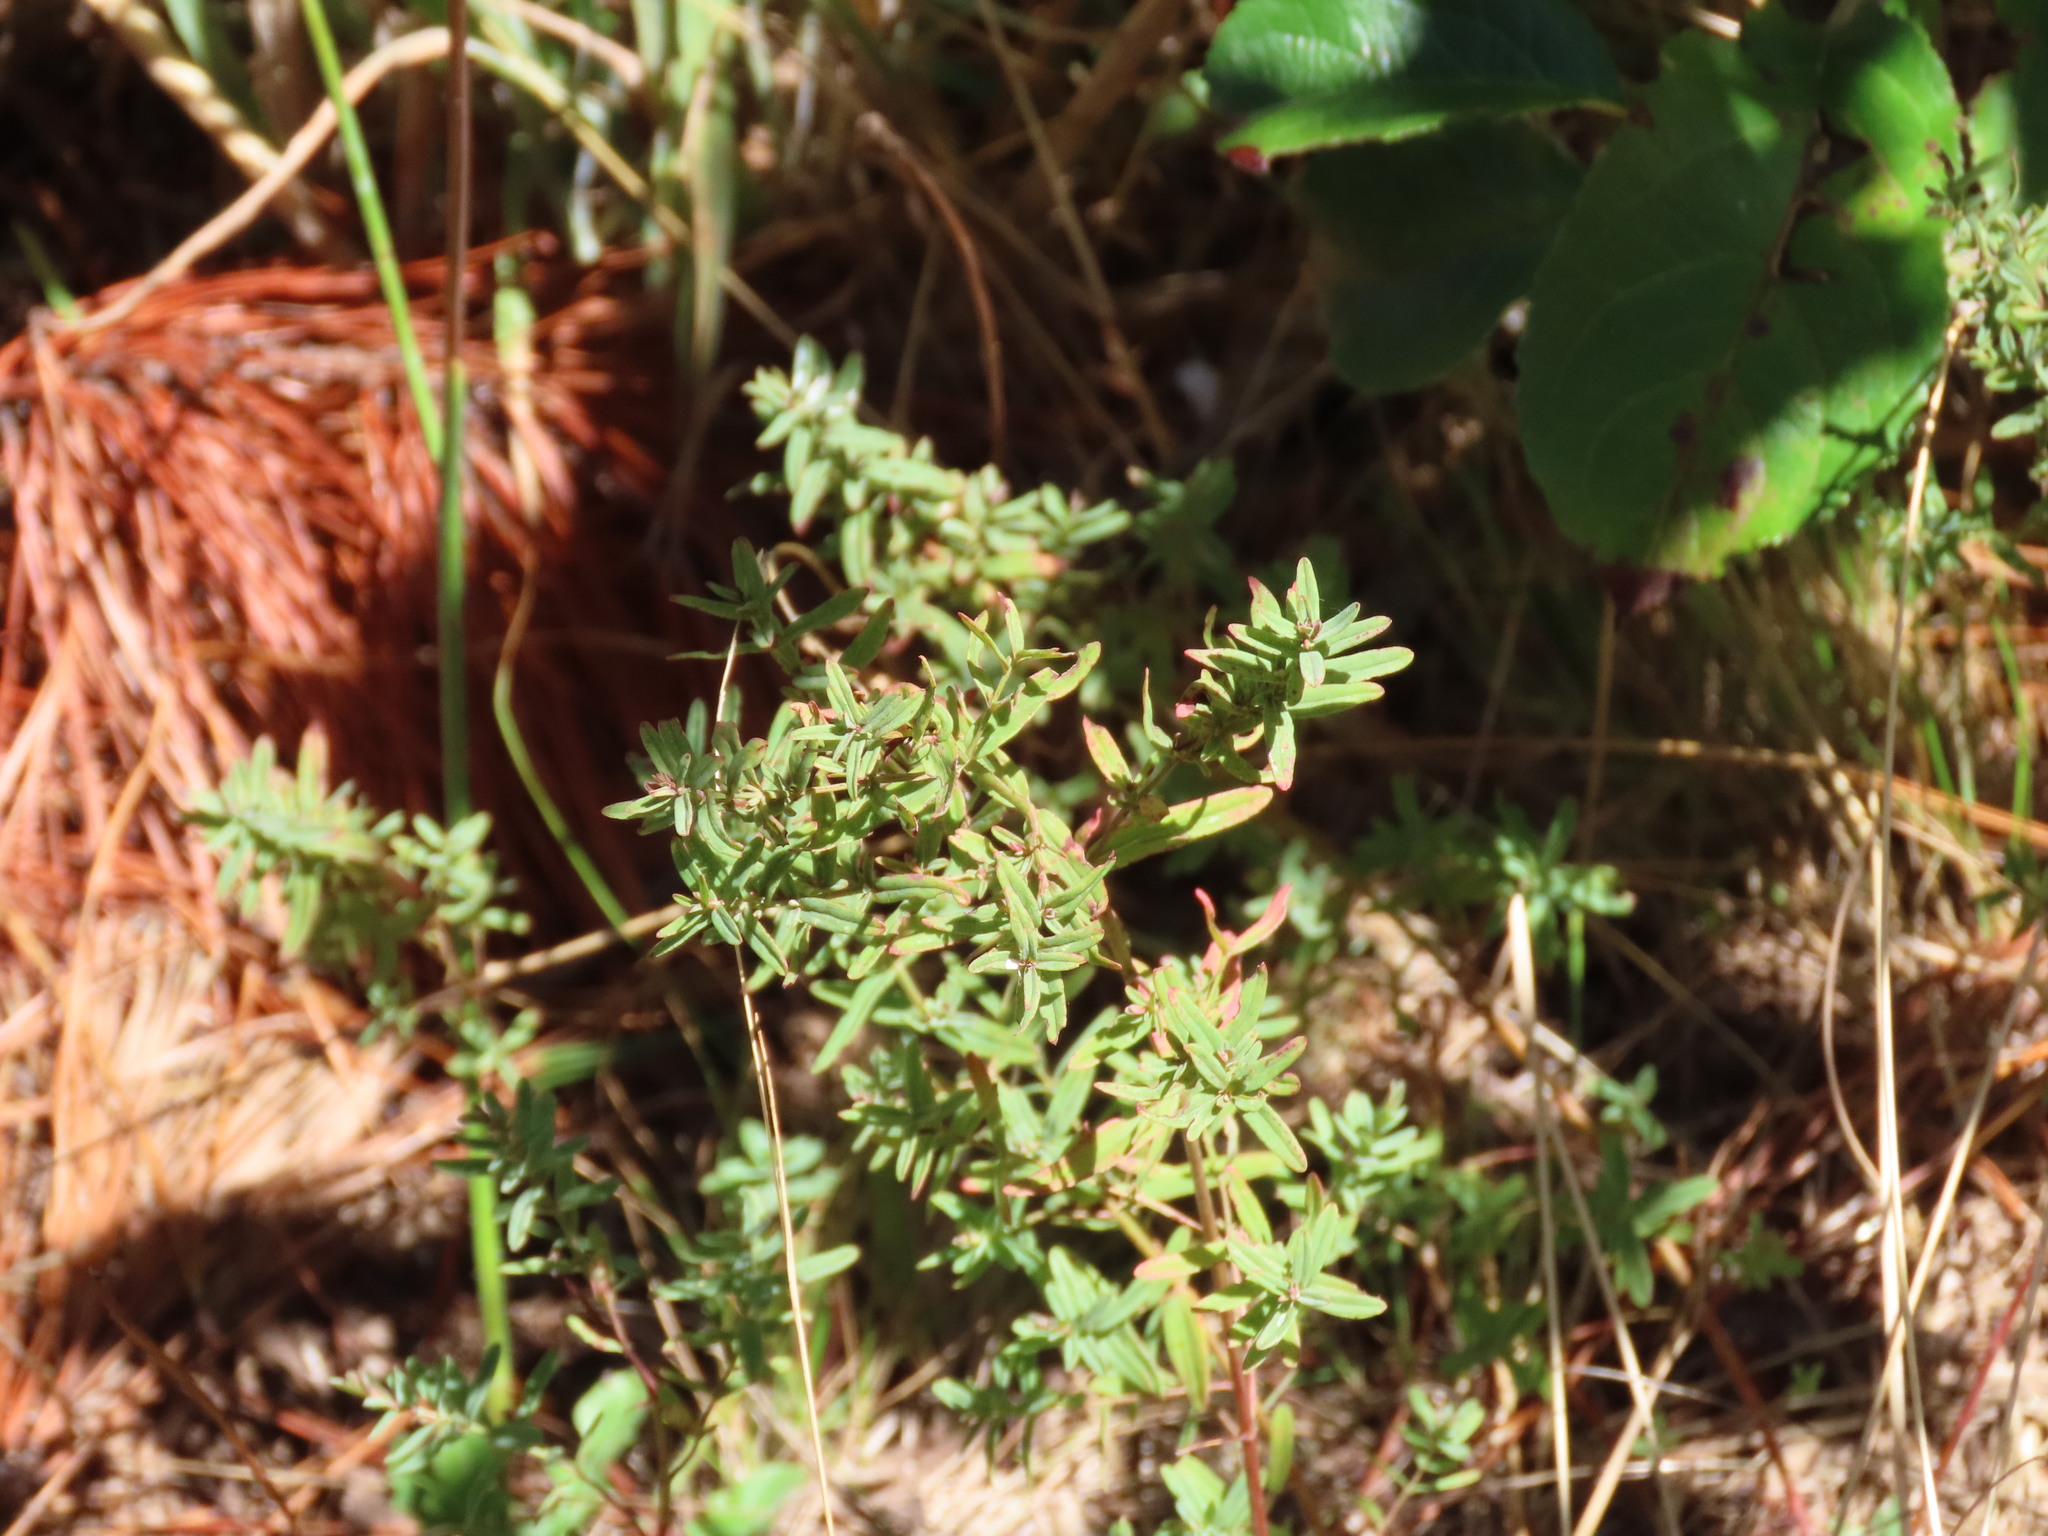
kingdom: Plantae
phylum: Tracheophyta
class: Magnoliopsida
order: Malpighiales
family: Hypericaceae
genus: Hypericum
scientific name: Hypericum perforatum
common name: Common st. johnswort
